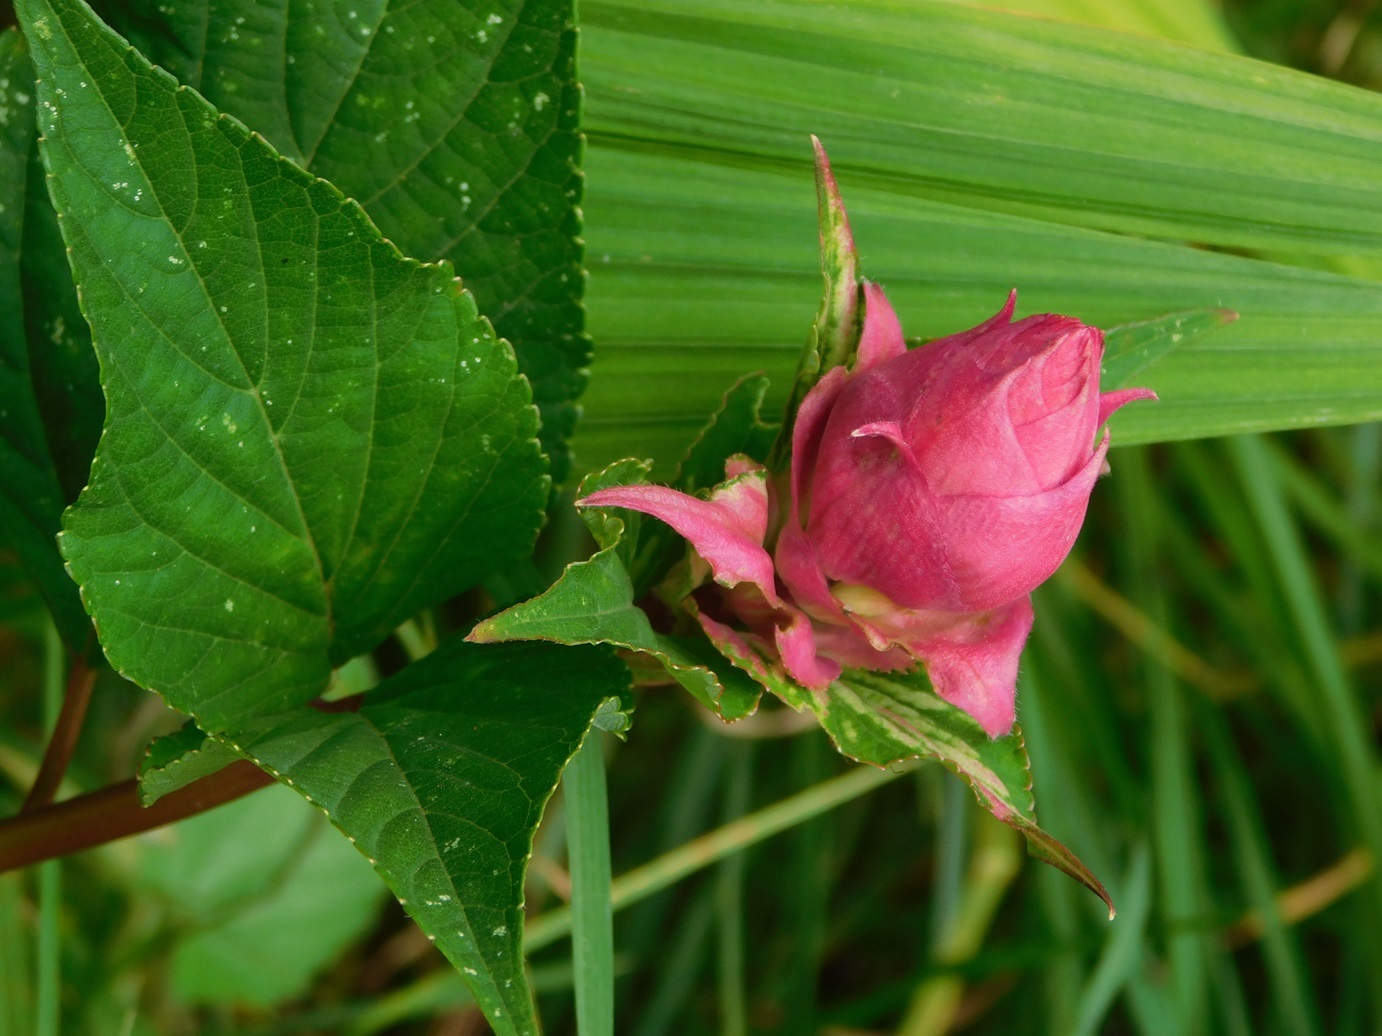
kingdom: Plantae
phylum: Tracheophyta
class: Magnoliopsida
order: Lamiales
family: Lamiaceae
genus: Salvia
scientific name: Salvia wagneriana
